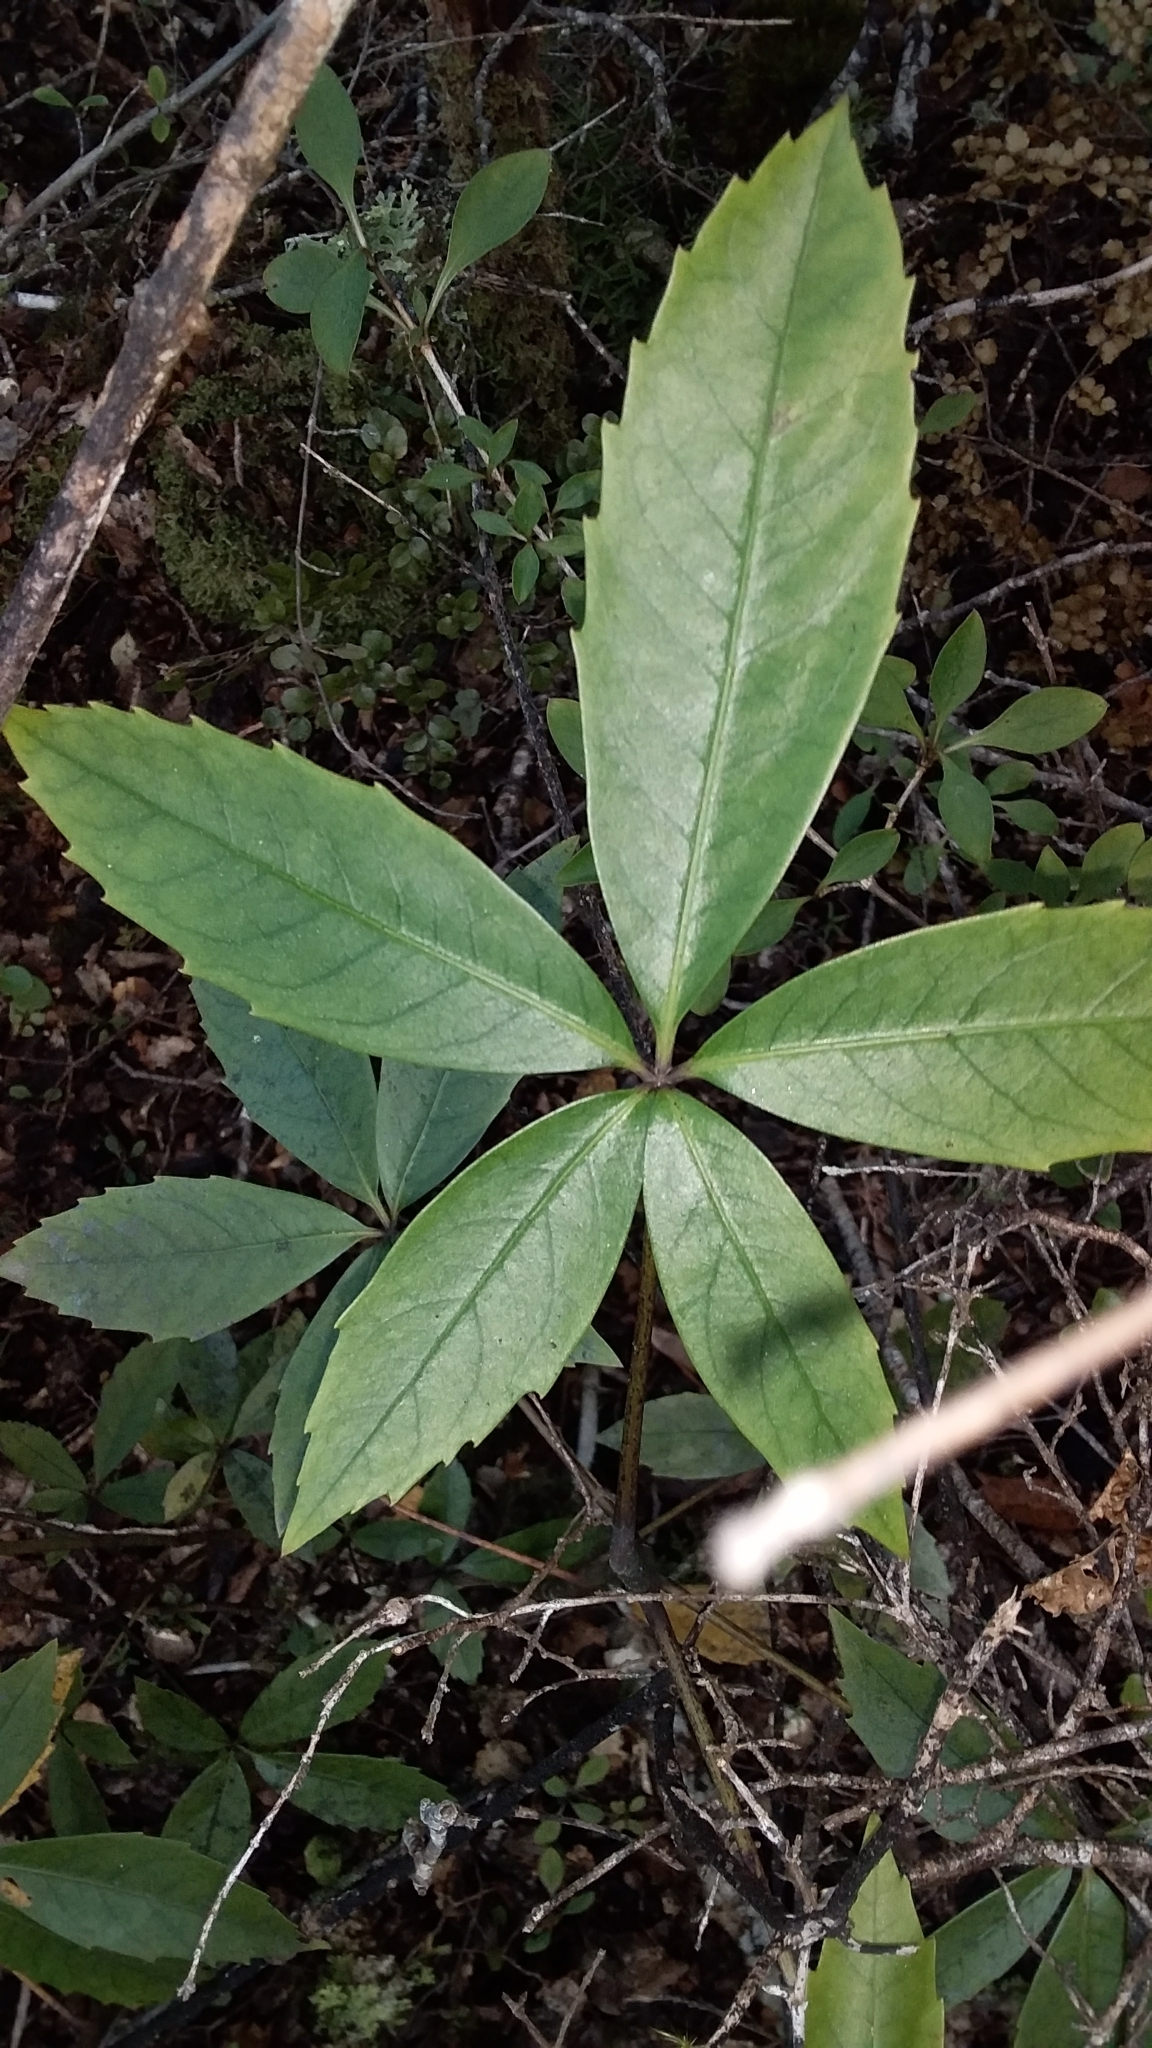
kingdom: Plantae
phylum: Tracheophyta
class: Magnoliopsida
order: Apiales
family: Araliaceae
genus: Neopanax
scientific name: Neopanax colensoi
